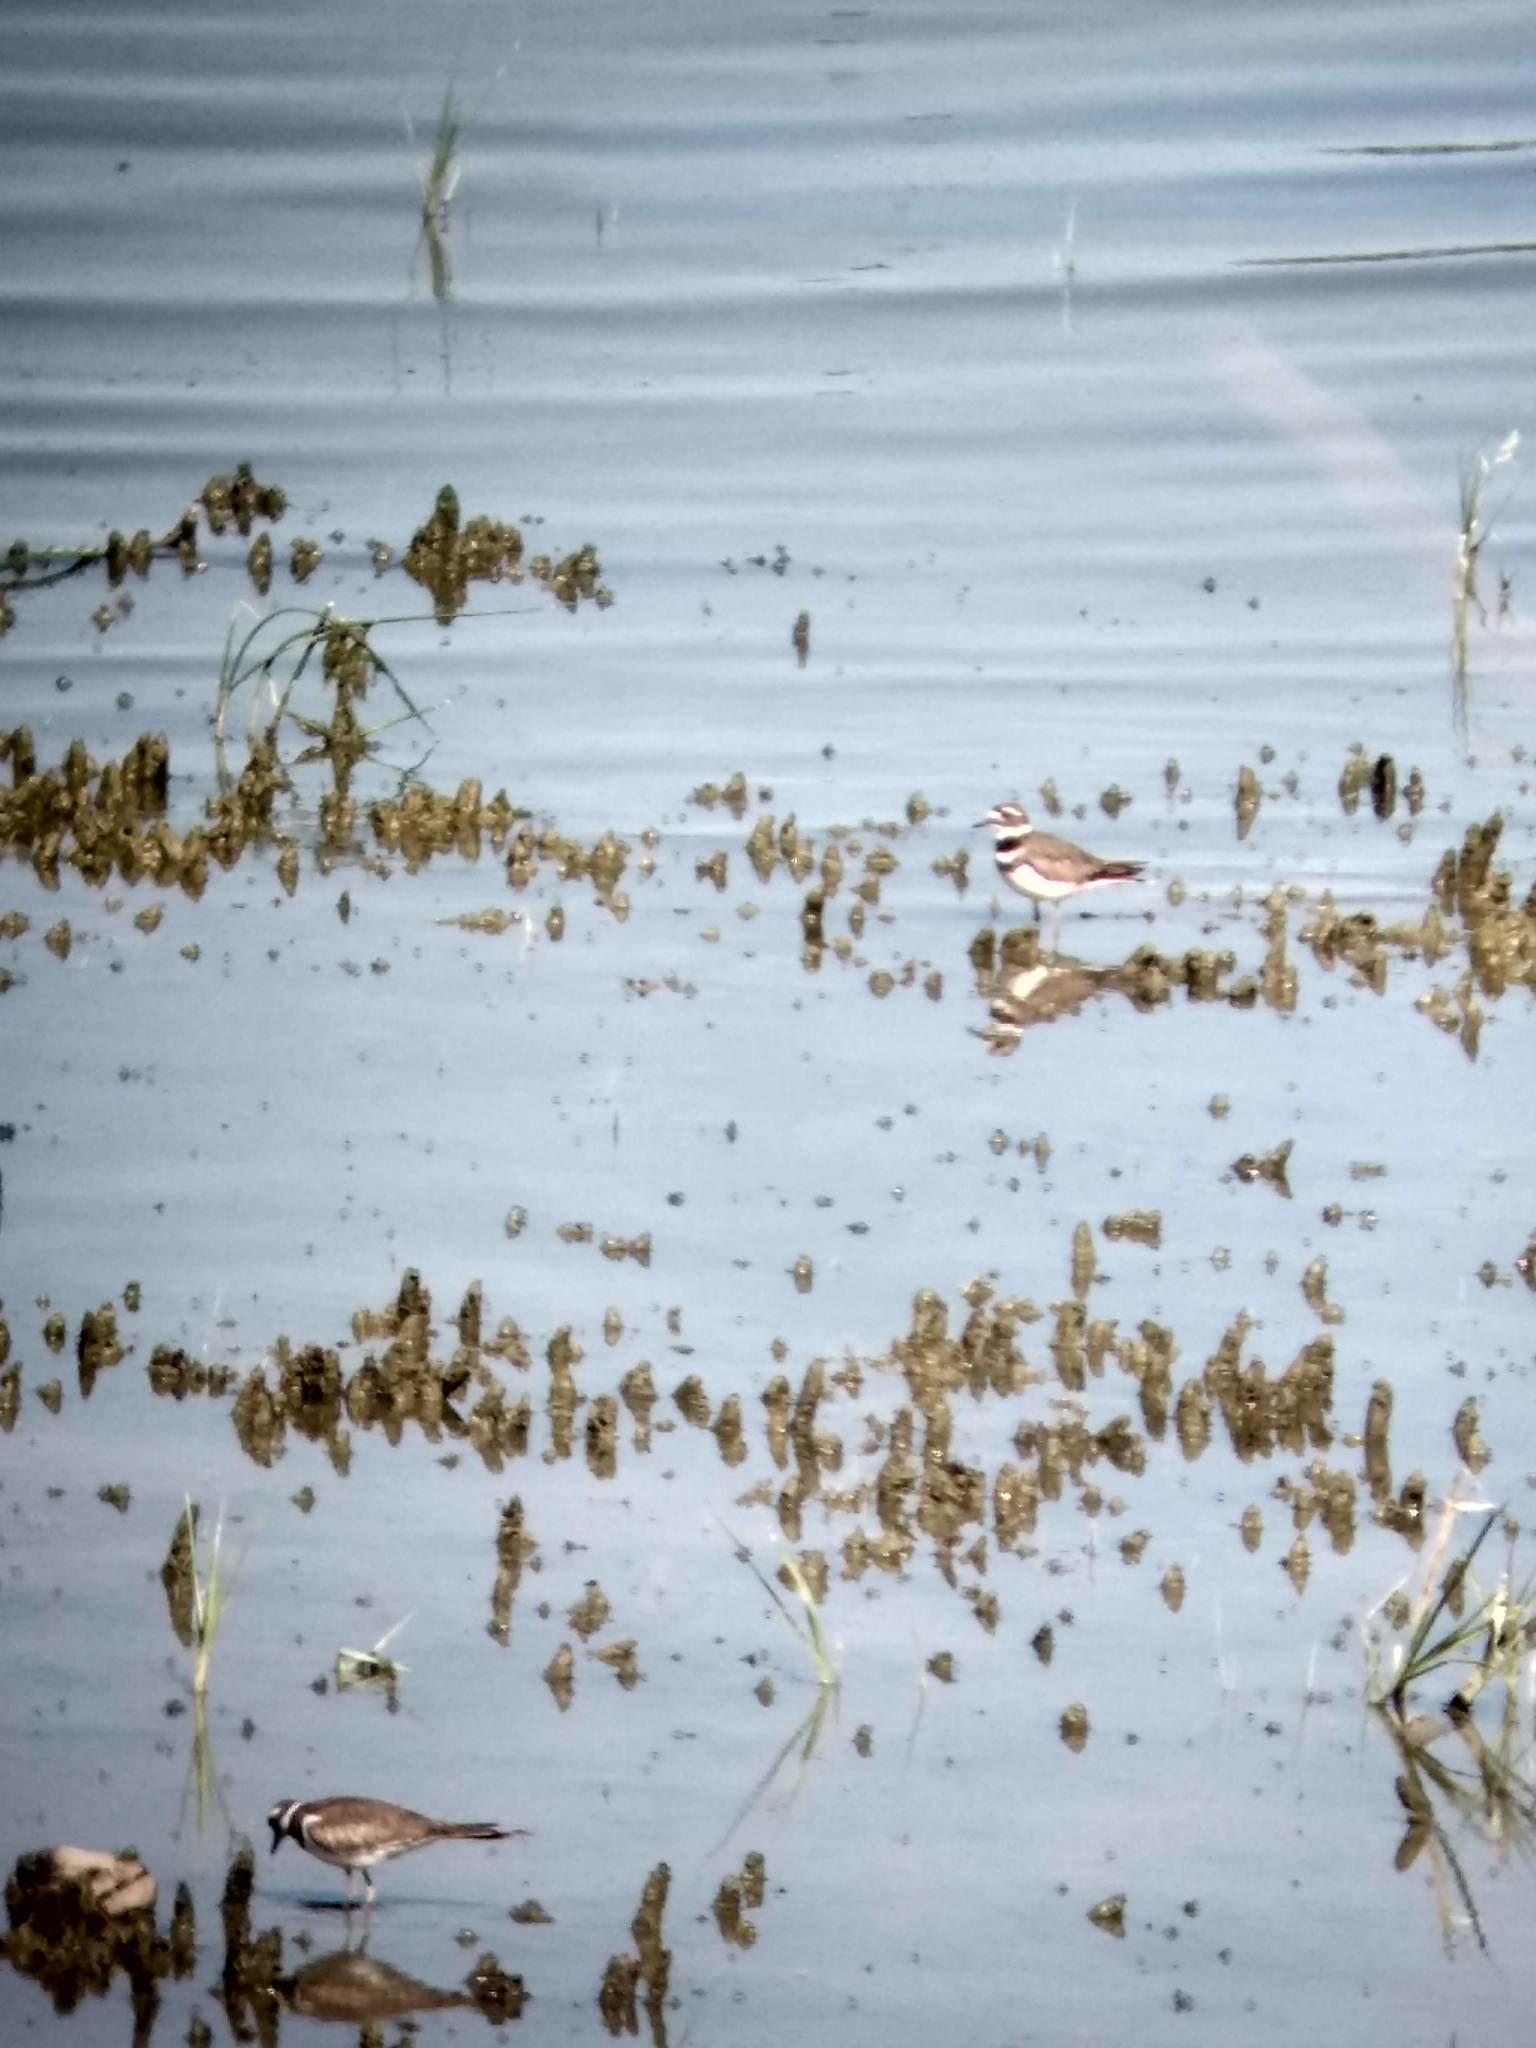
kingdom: Animalia
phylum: Chordata
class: Aves
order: Charadriiformes
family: Charadriidae
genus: Charadrius
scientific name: Charadrius vociferus
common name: Killdeer
